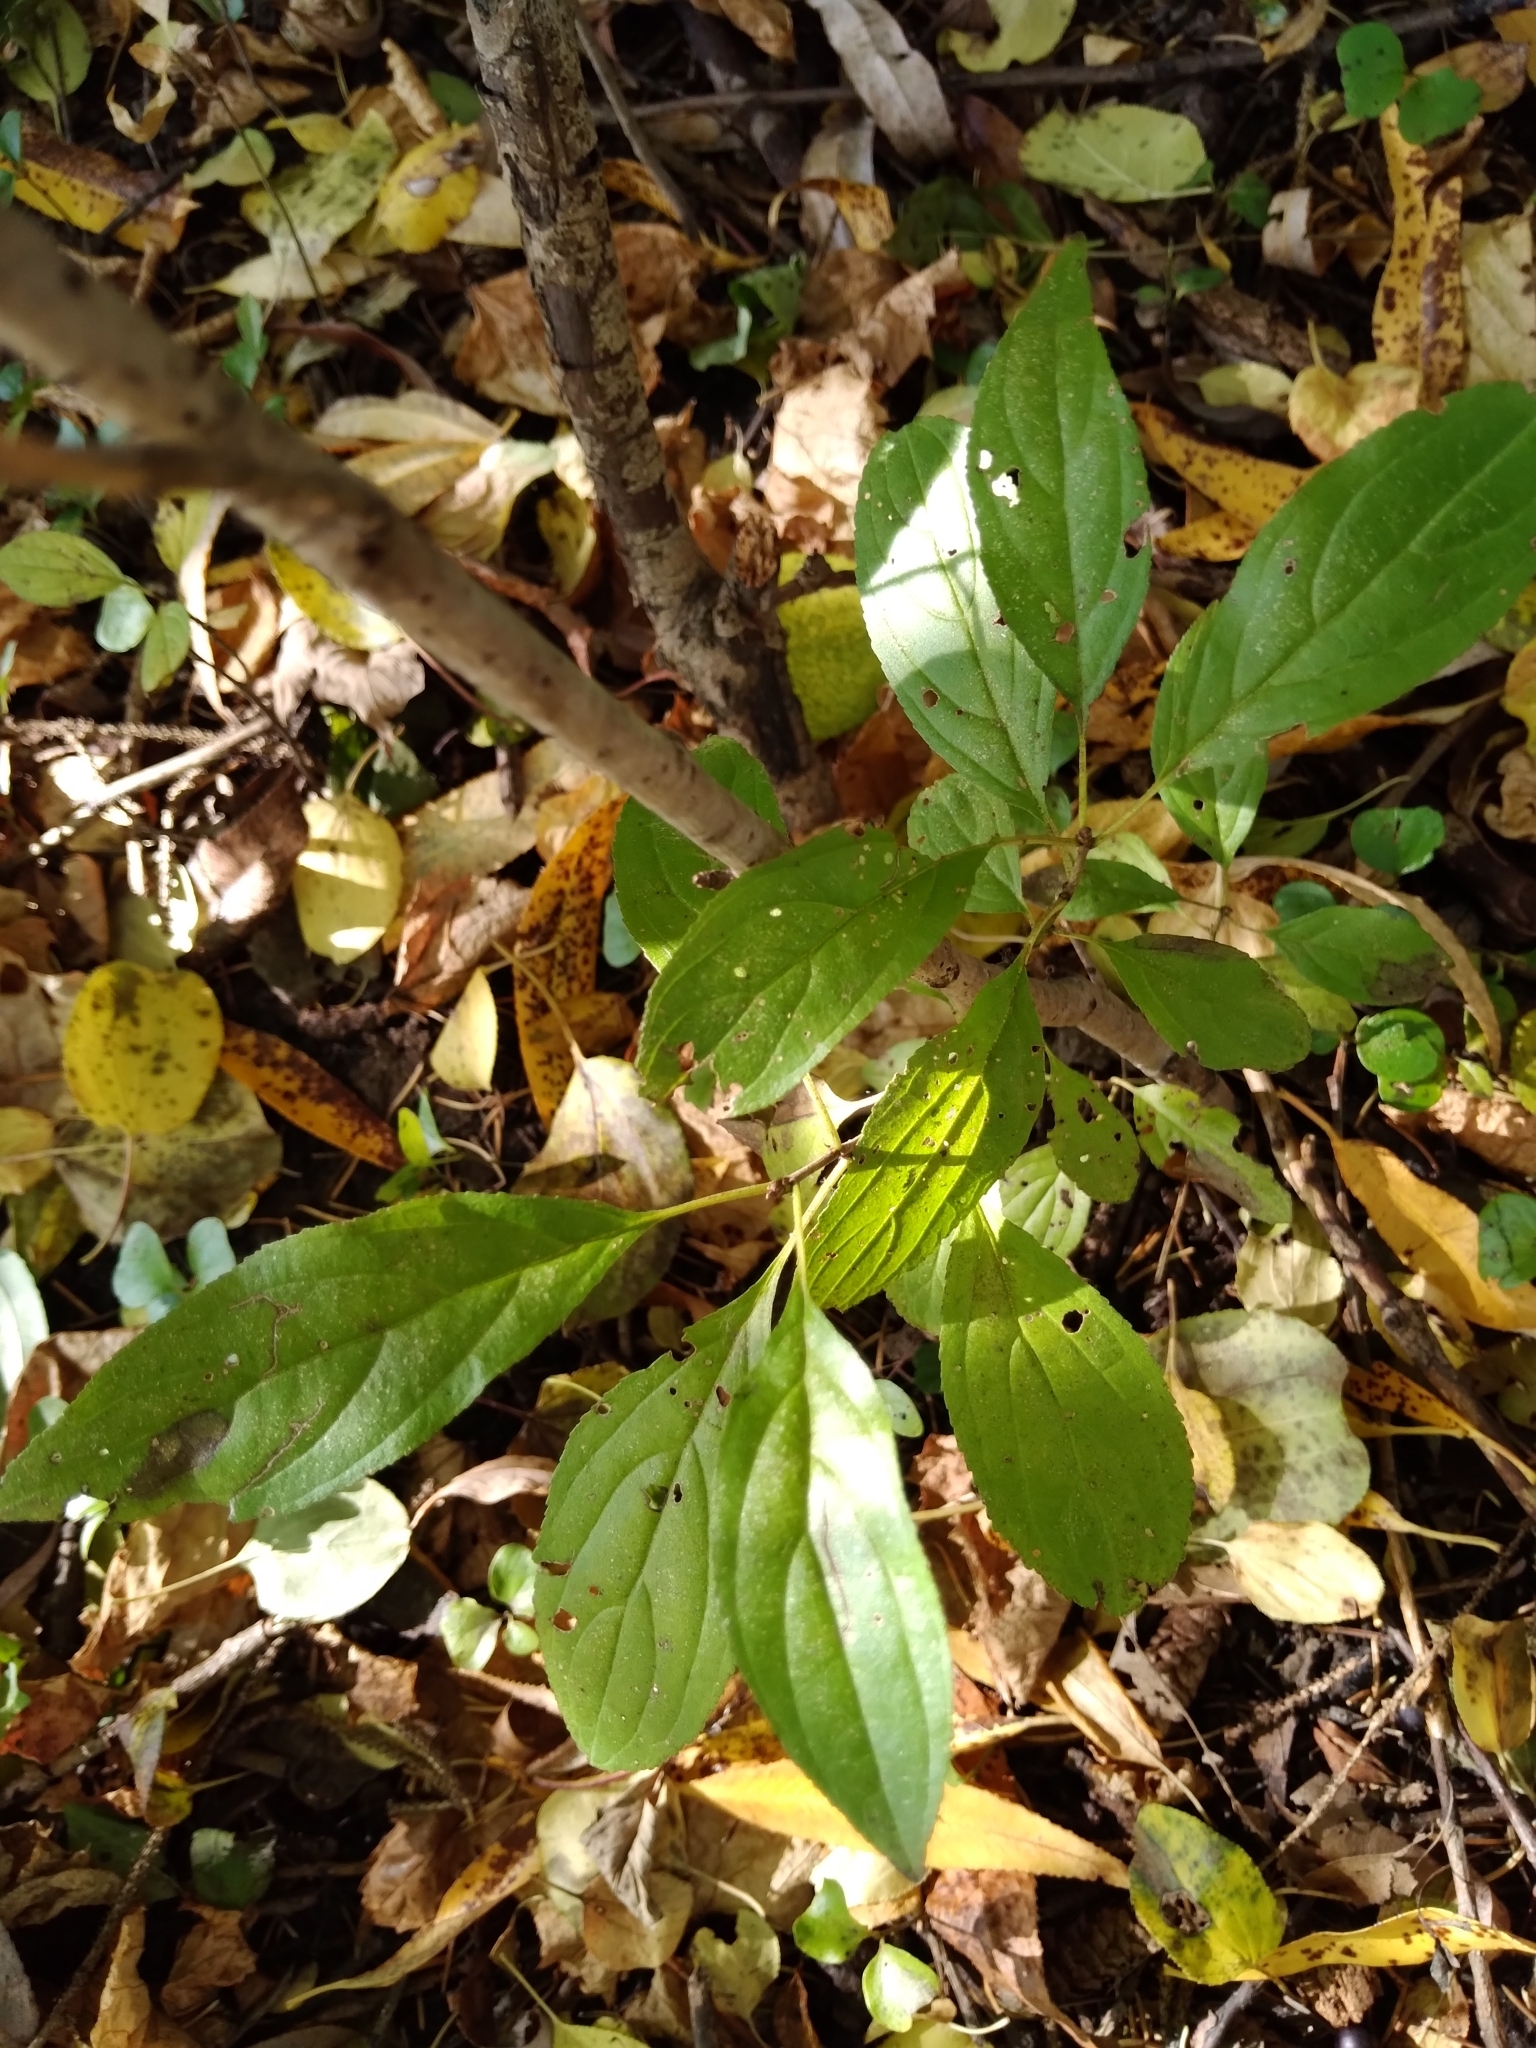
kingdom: Plantae
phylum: Tracheophyta
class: Magnoliopsida
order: Rosales
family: Rhamnaceae
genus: Rhamnus
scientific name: Rhamnus cathartica
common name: Common buckthorn
